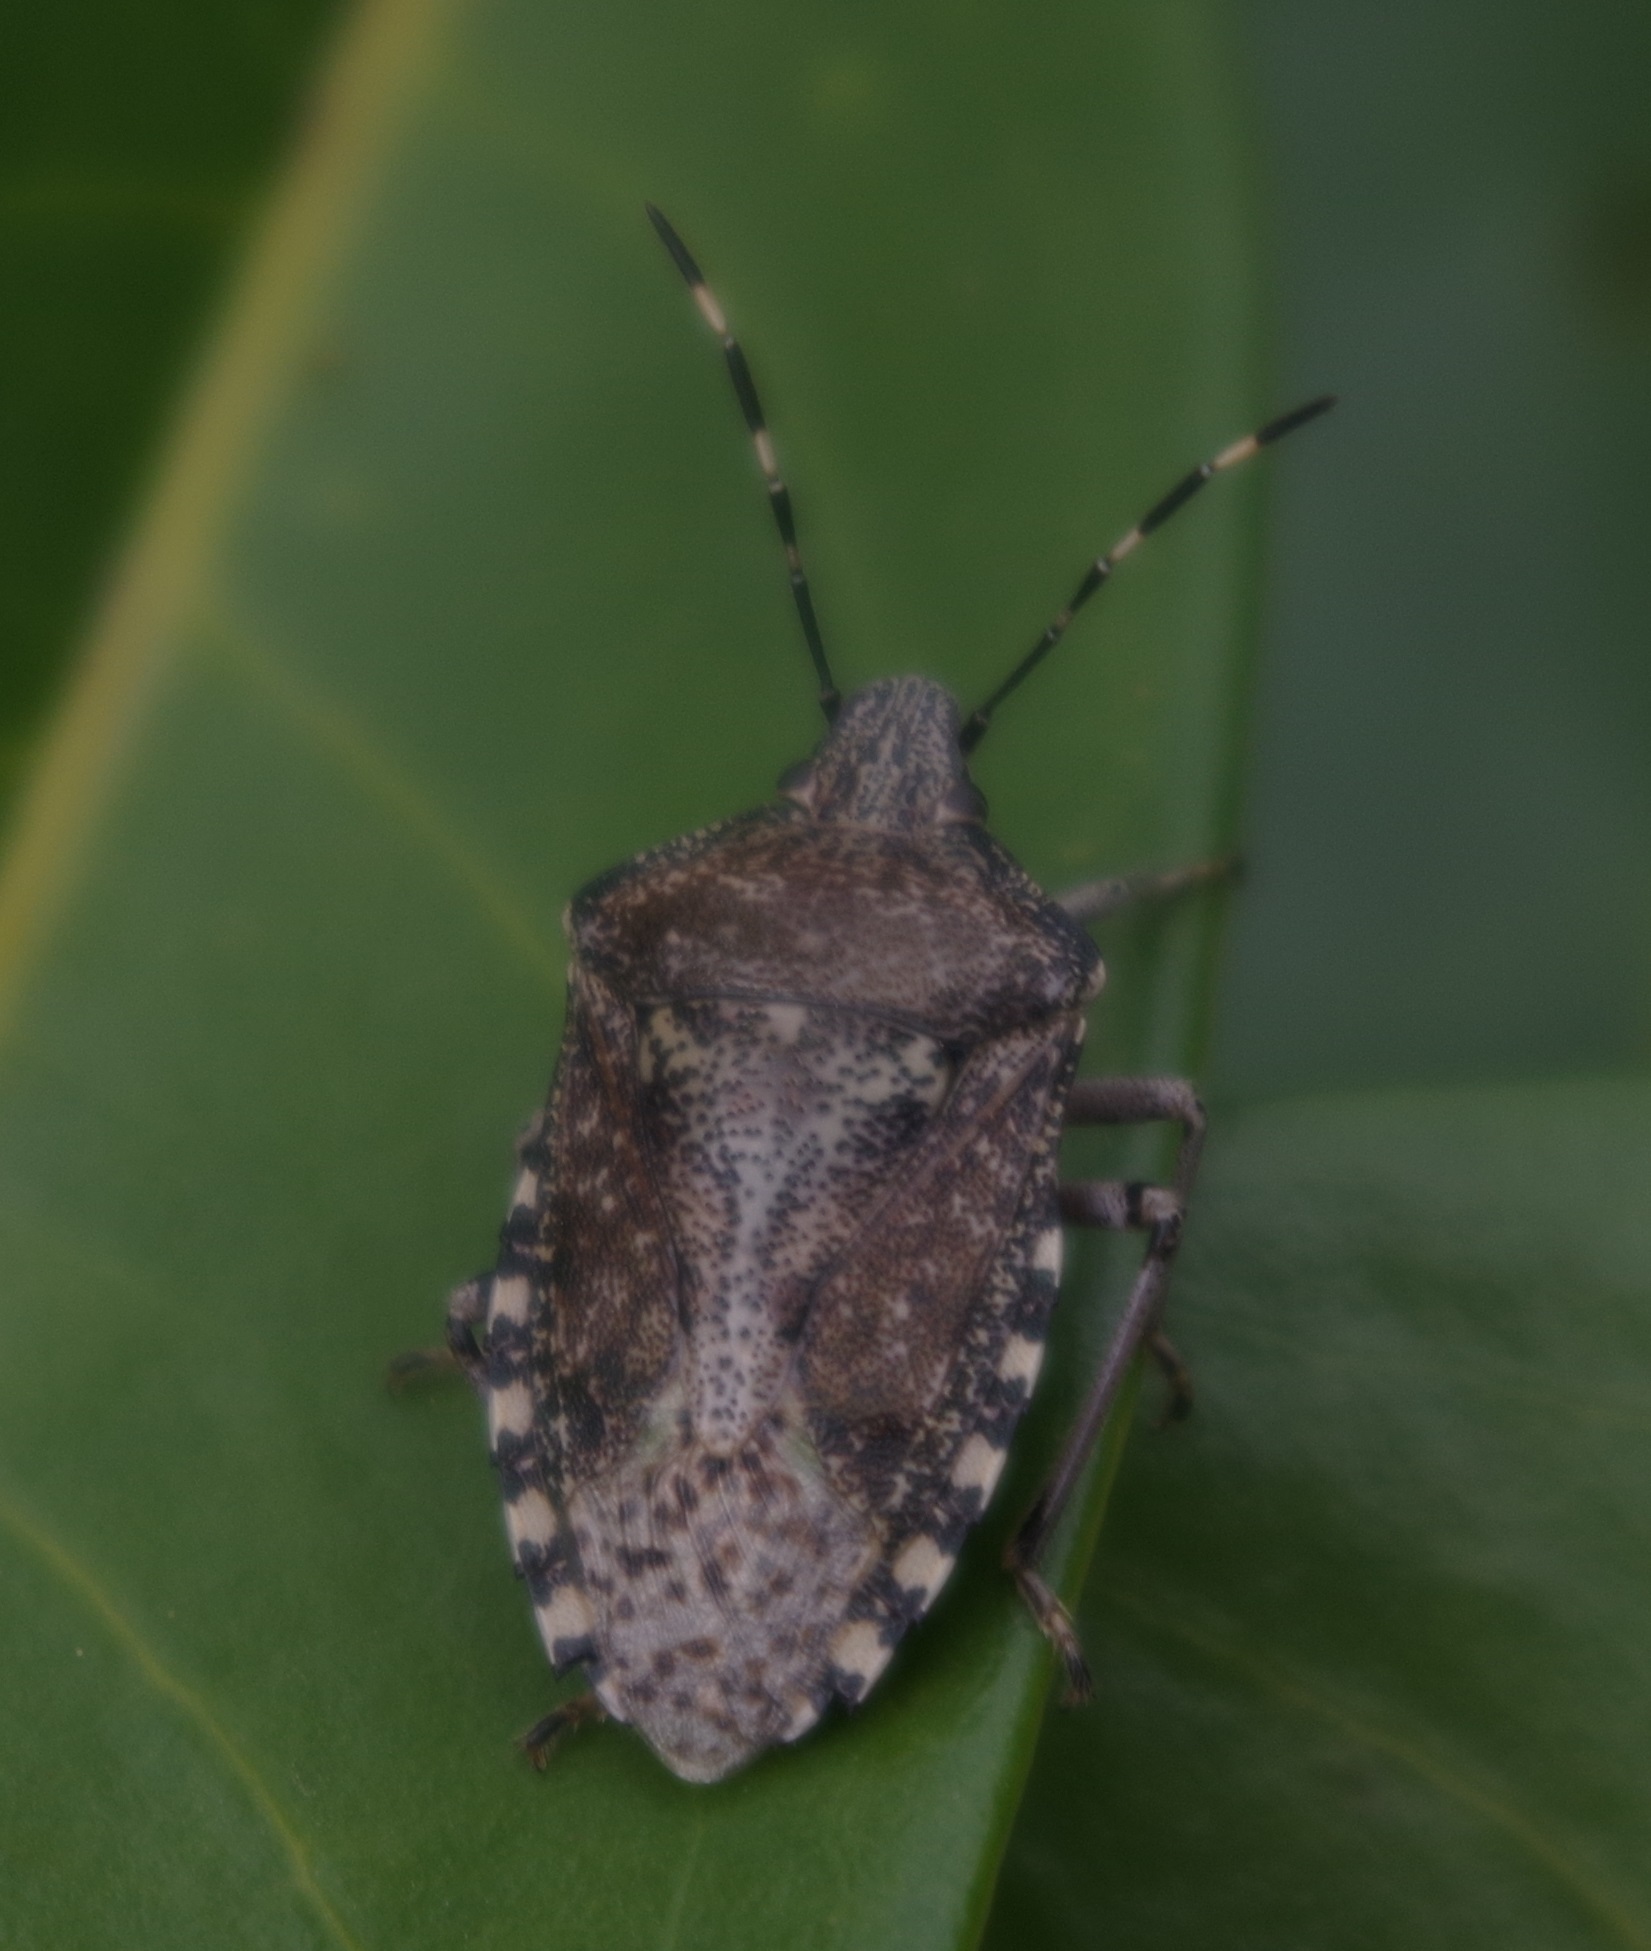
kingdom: Animalia
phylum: Arthropoda
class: Insecta
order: Hemiptera
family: Pentatomidae
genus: Rhaphigaster
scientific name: Rhaphigaster nebulosa
